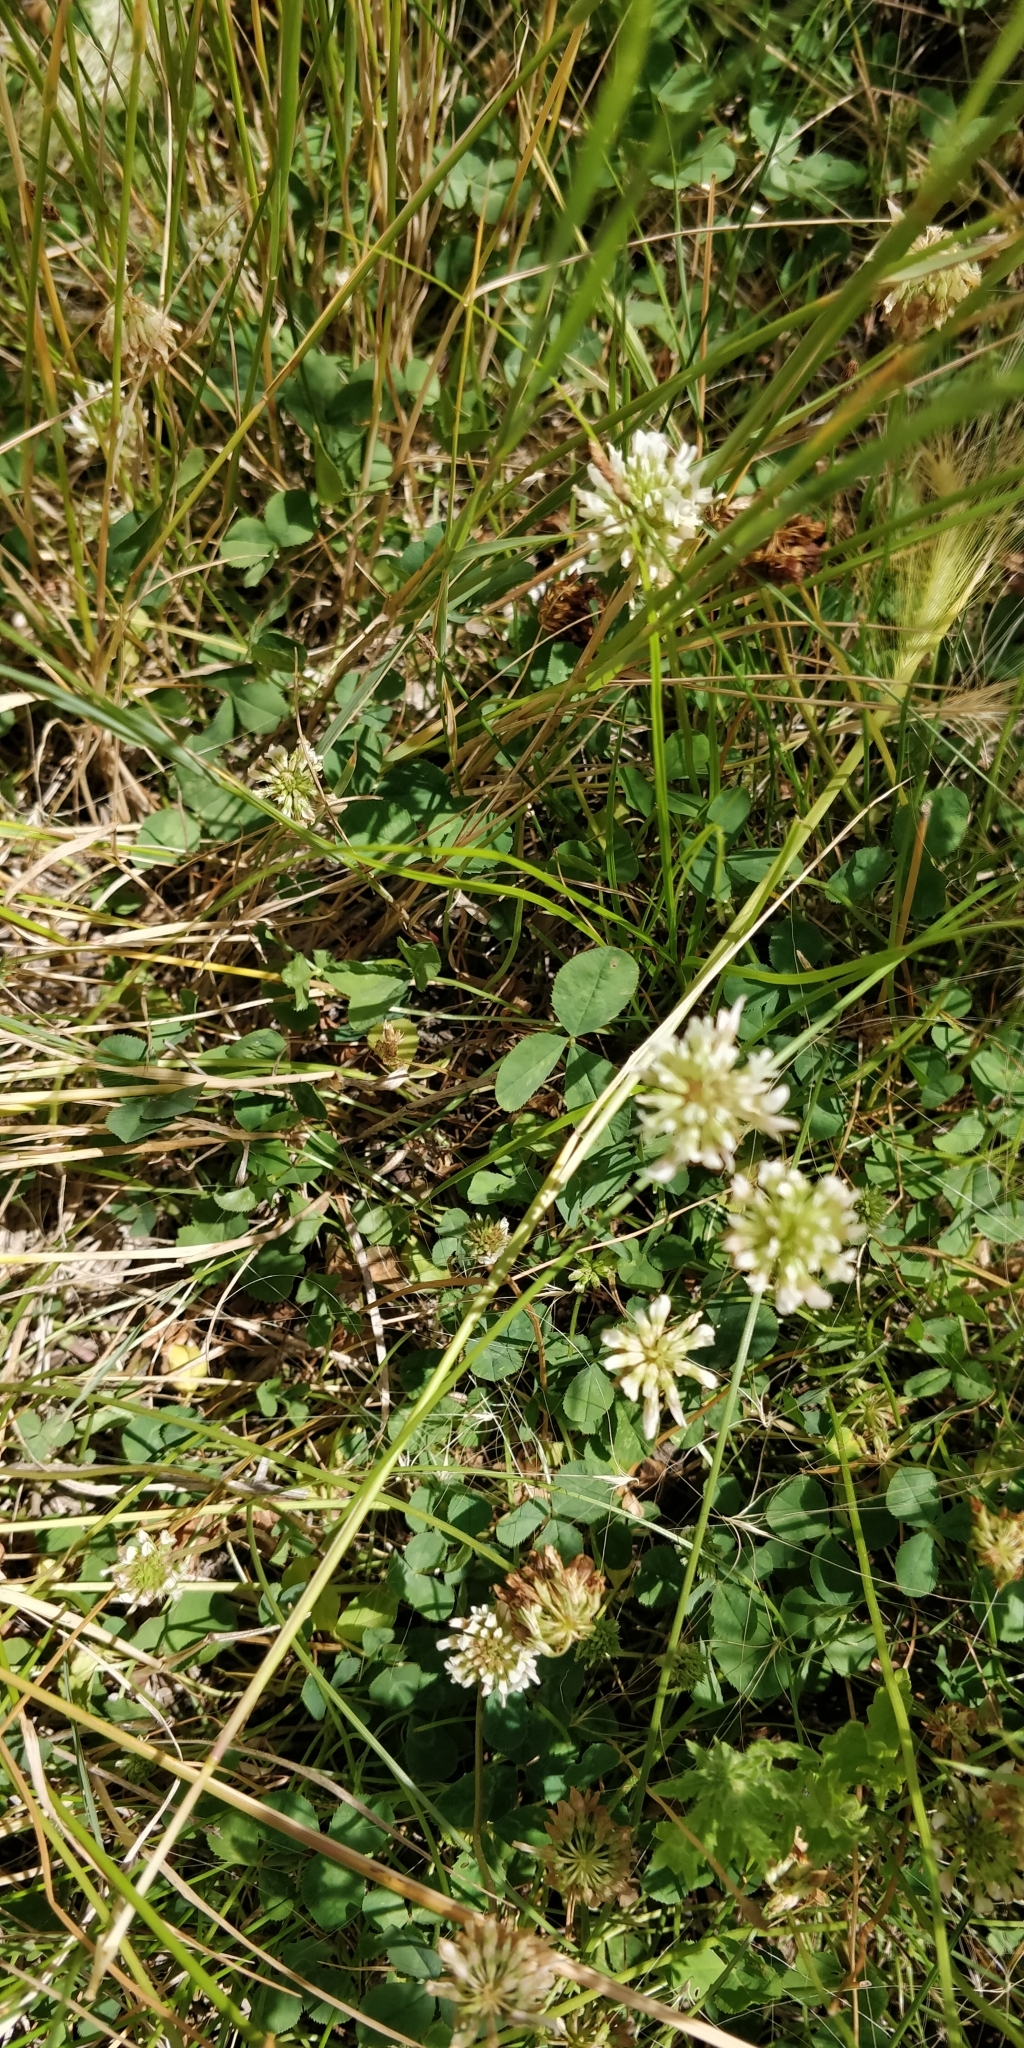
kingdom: Plantae
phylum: Tracheophyta
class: Magnoliopsida
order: Fabales
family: Fabaceae
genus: Trifolium
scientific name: Trifolium repens
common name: White clover
